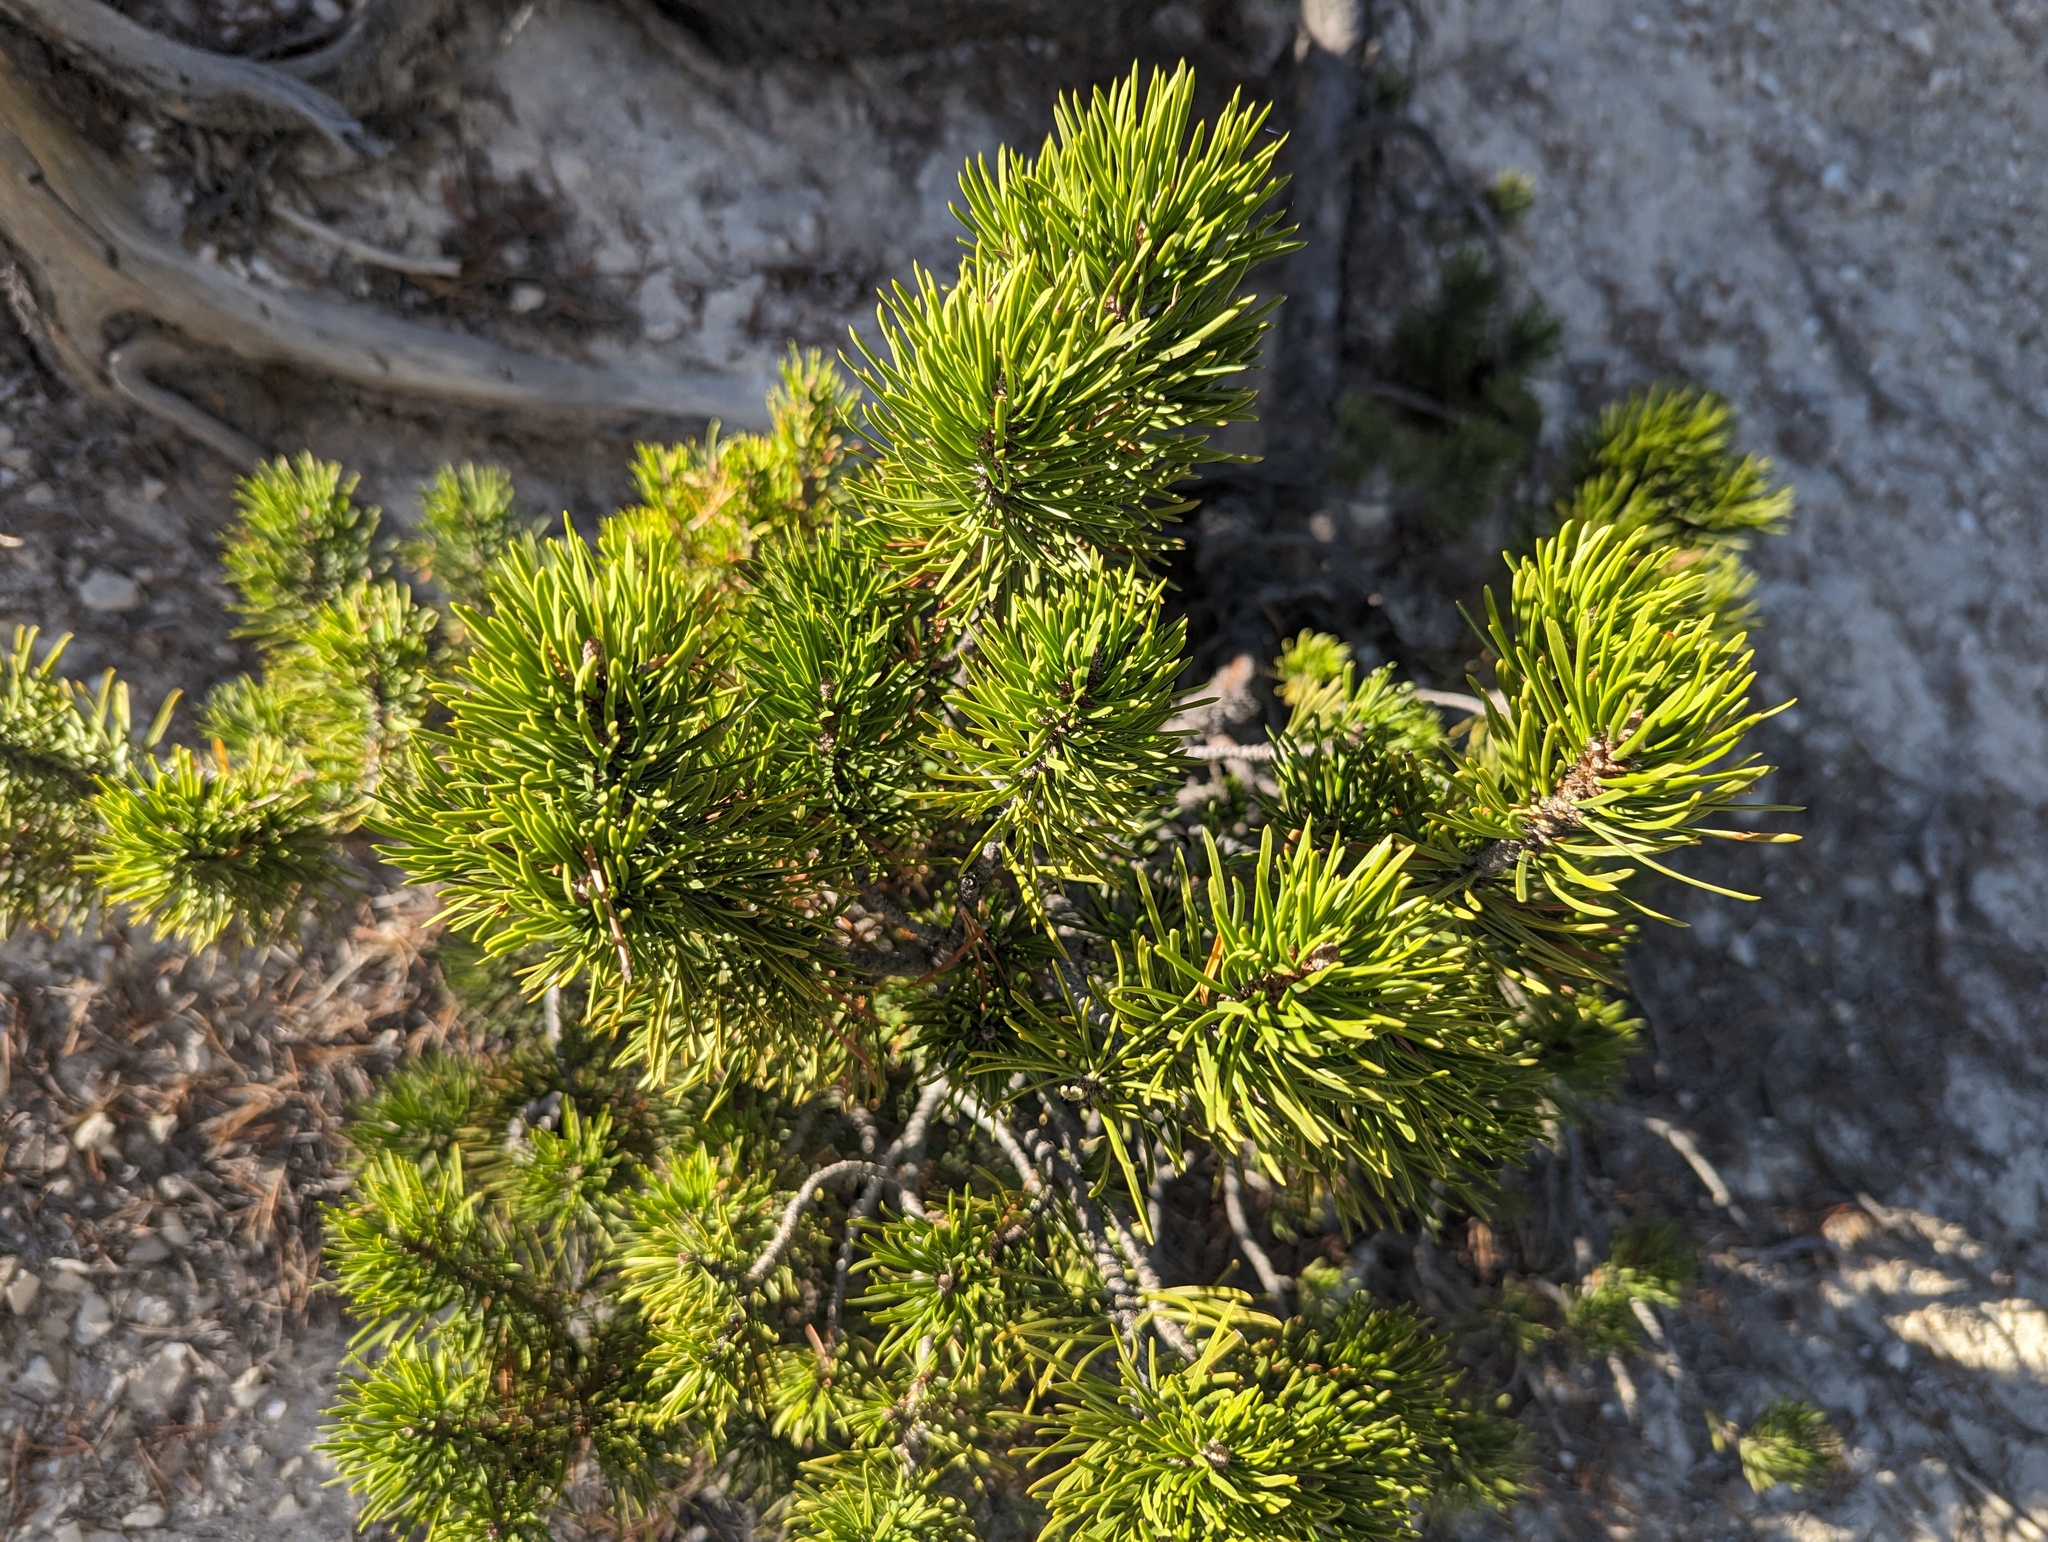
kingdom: Plantae
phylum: Tracheophyta
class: Pinopsida
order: Pinales
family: Pinaceae
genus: Pinus
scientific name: Pinus contorta
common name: Lodgepole pine
